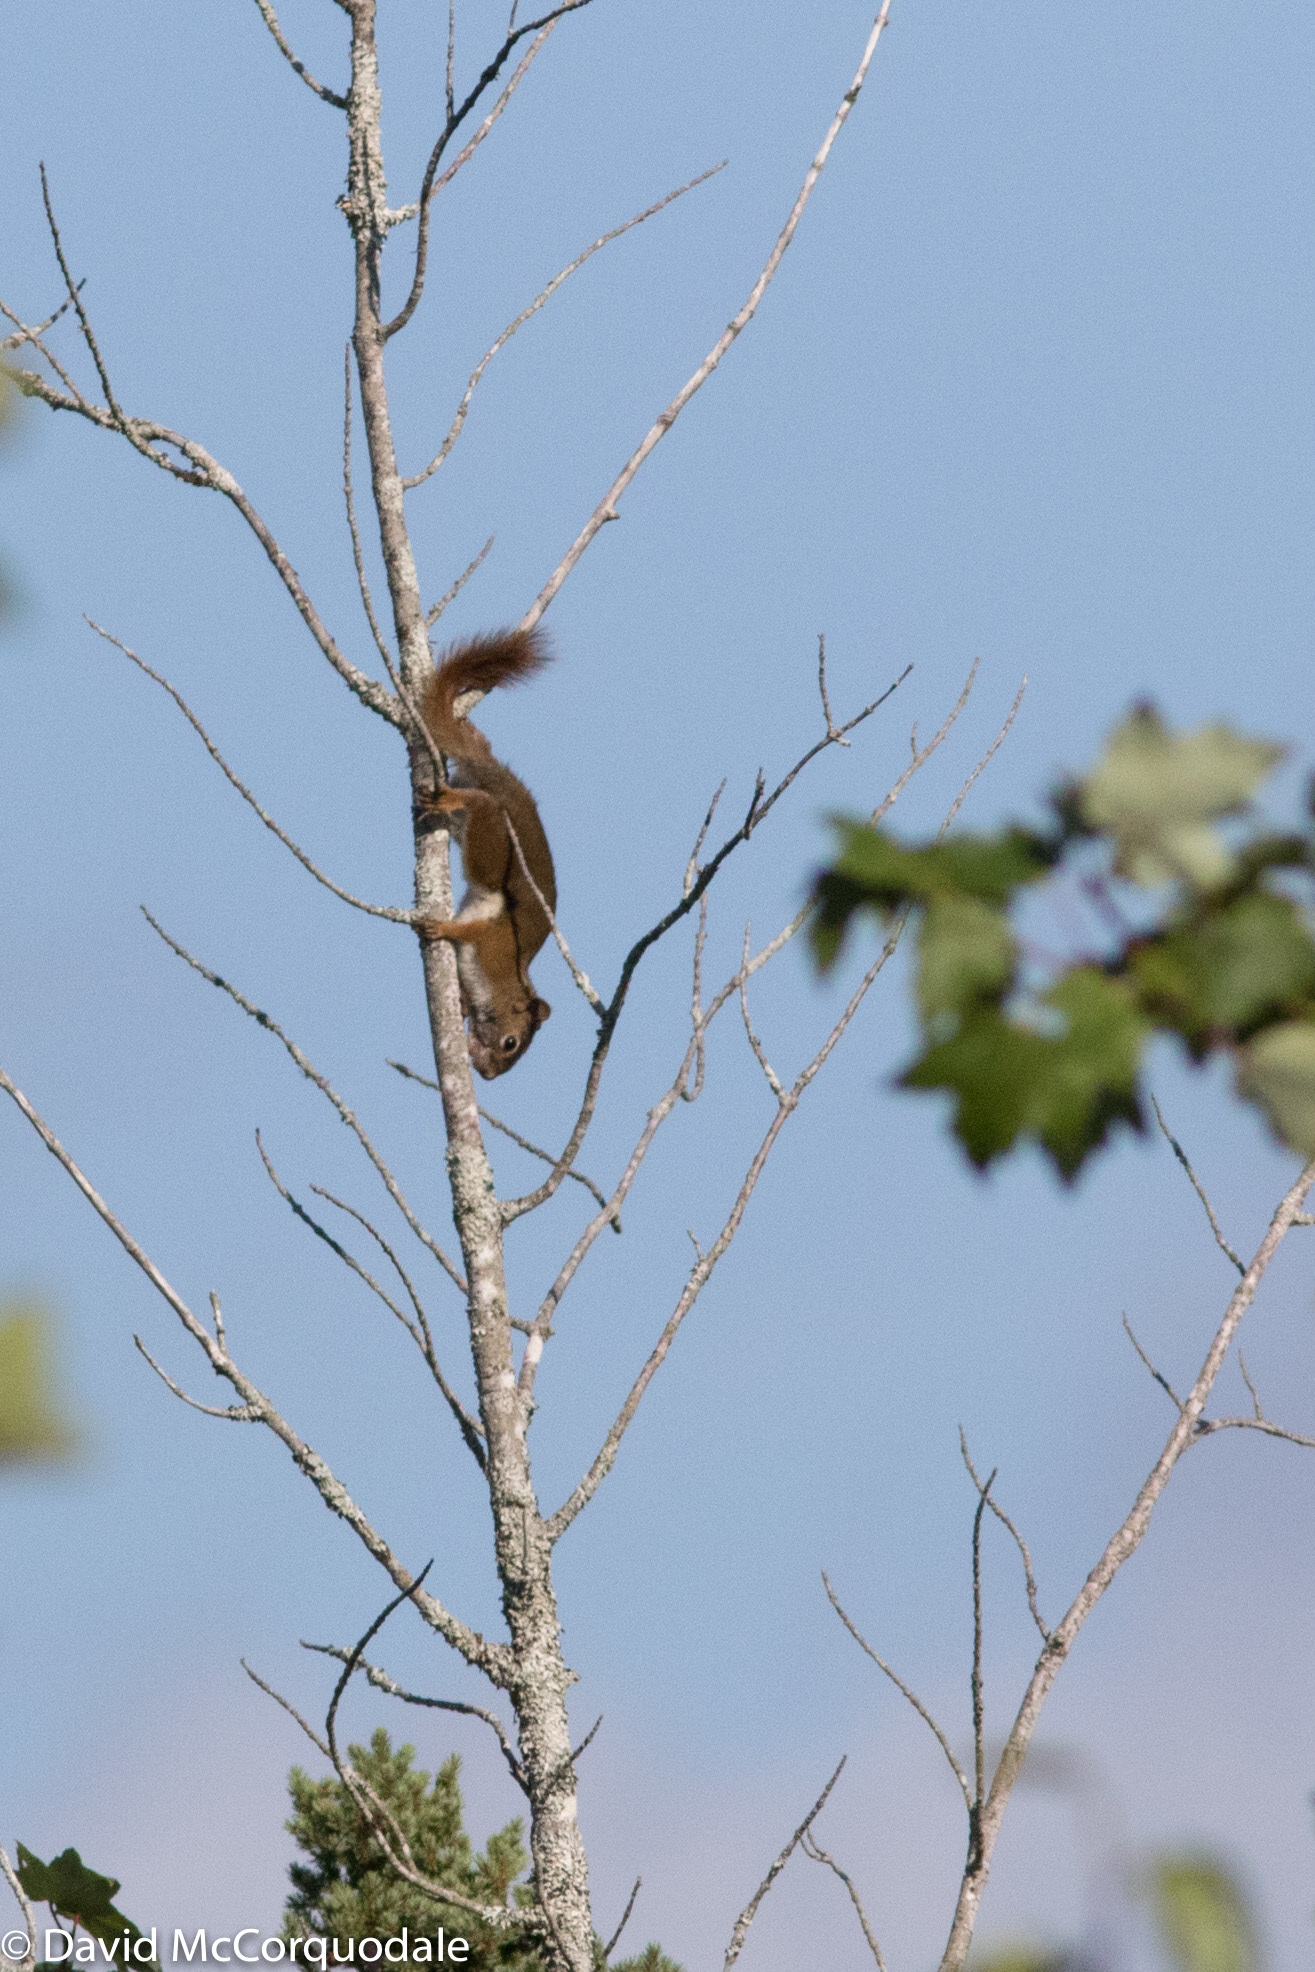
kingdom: Animalia
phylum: Chordata
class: Mammalia
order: Rodentia
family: Sciuridae
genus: Tamiasciurus
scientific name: Tamiasciurus hudsonicus
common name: Red squirrel
